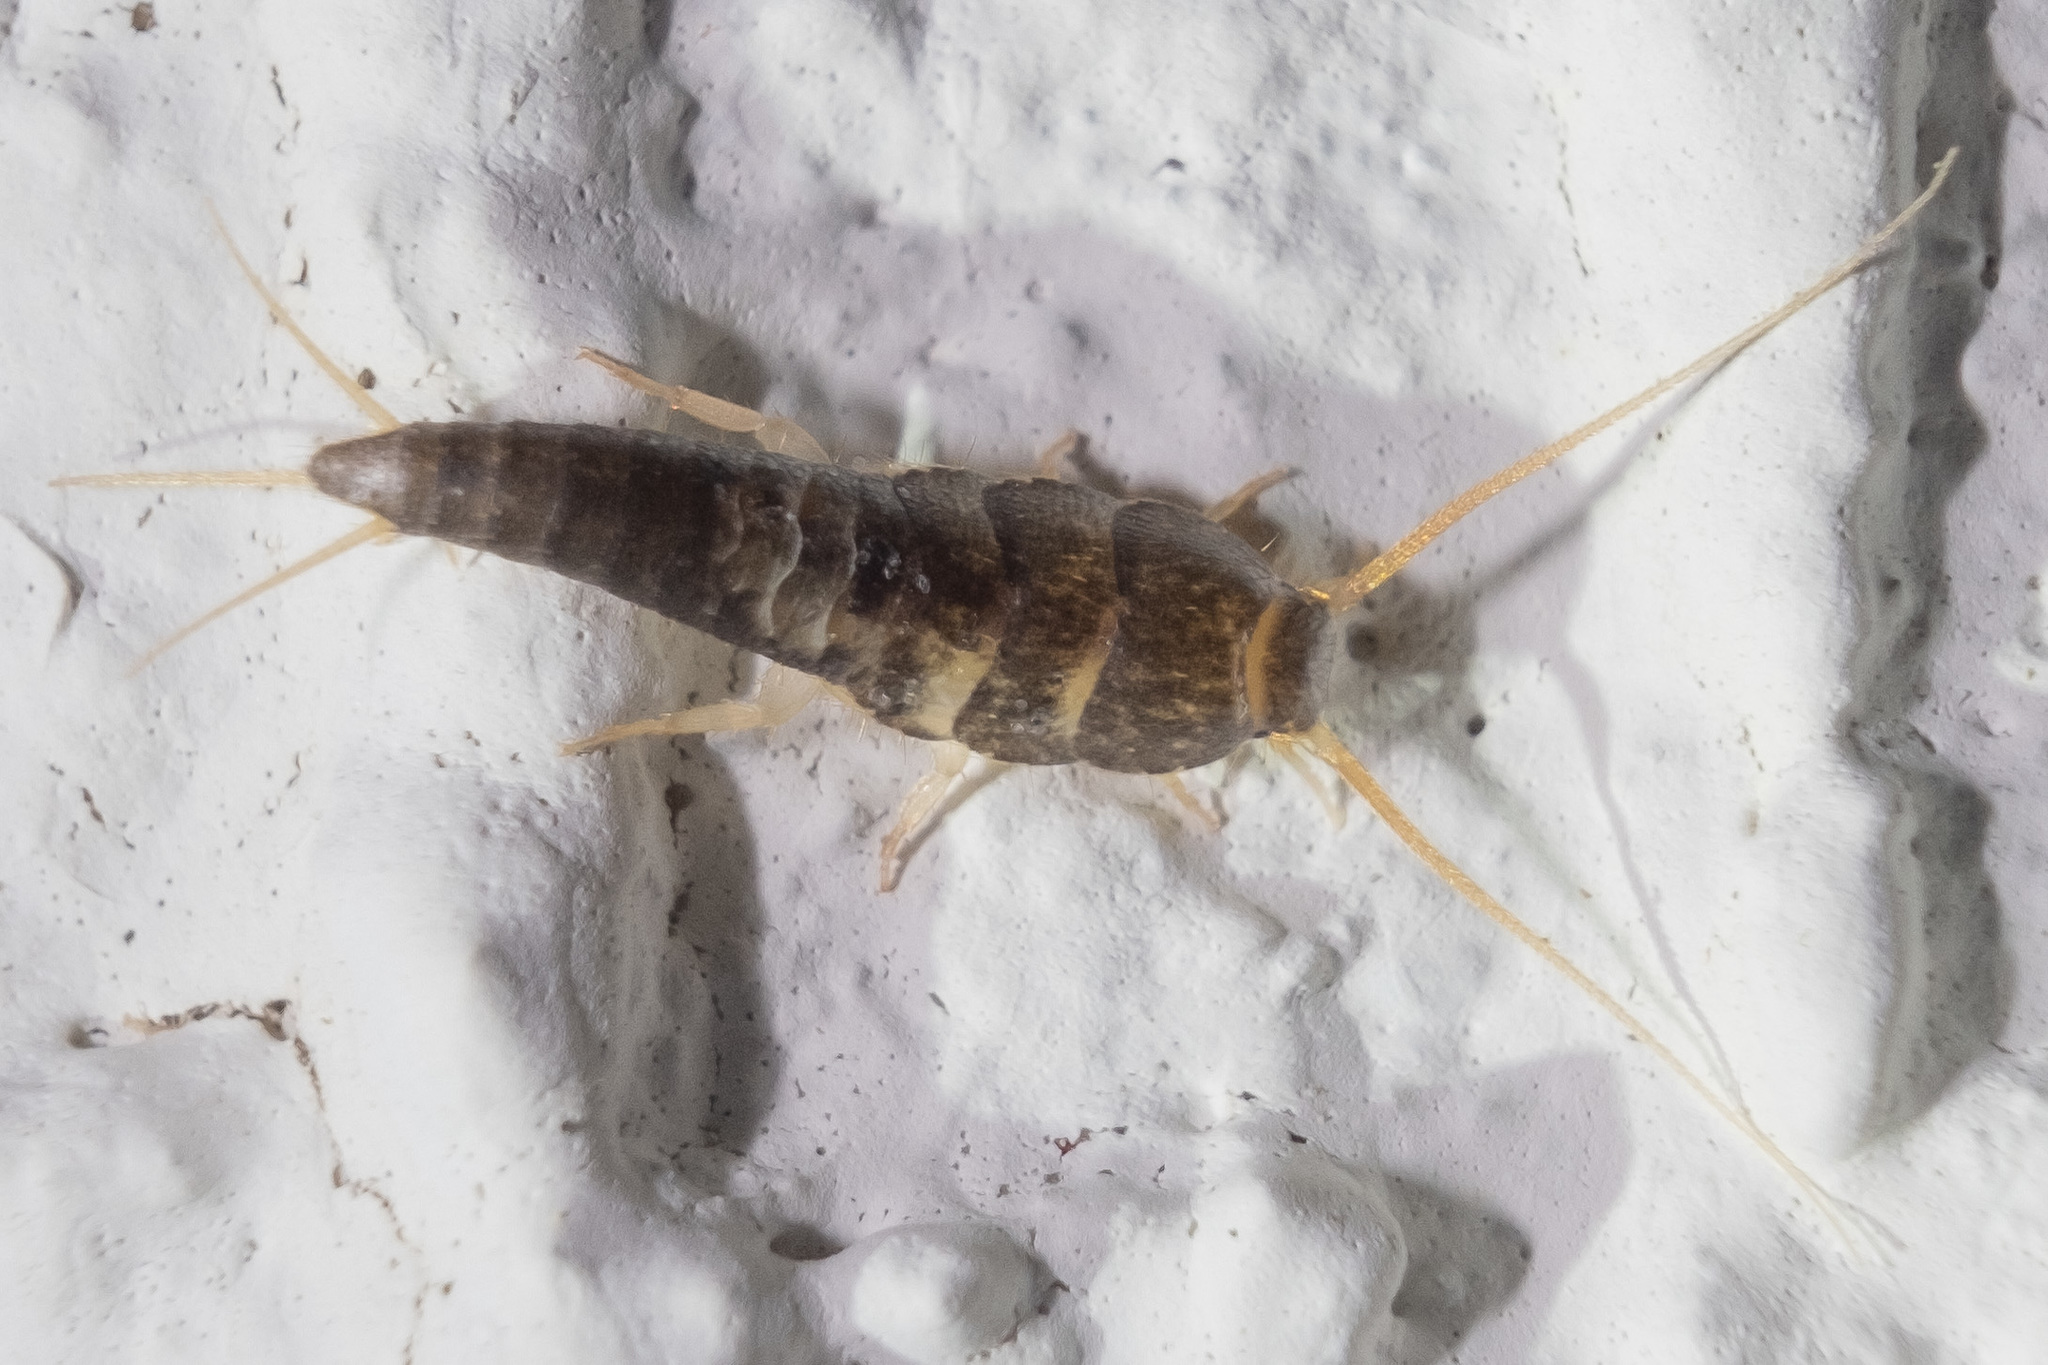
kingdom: Animalia
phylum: Arthropoda
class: Insecta
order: Zygentoma
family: Lepismatidae
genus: Lepisma
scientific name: Lepisma saccharinum
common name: Silverfish
